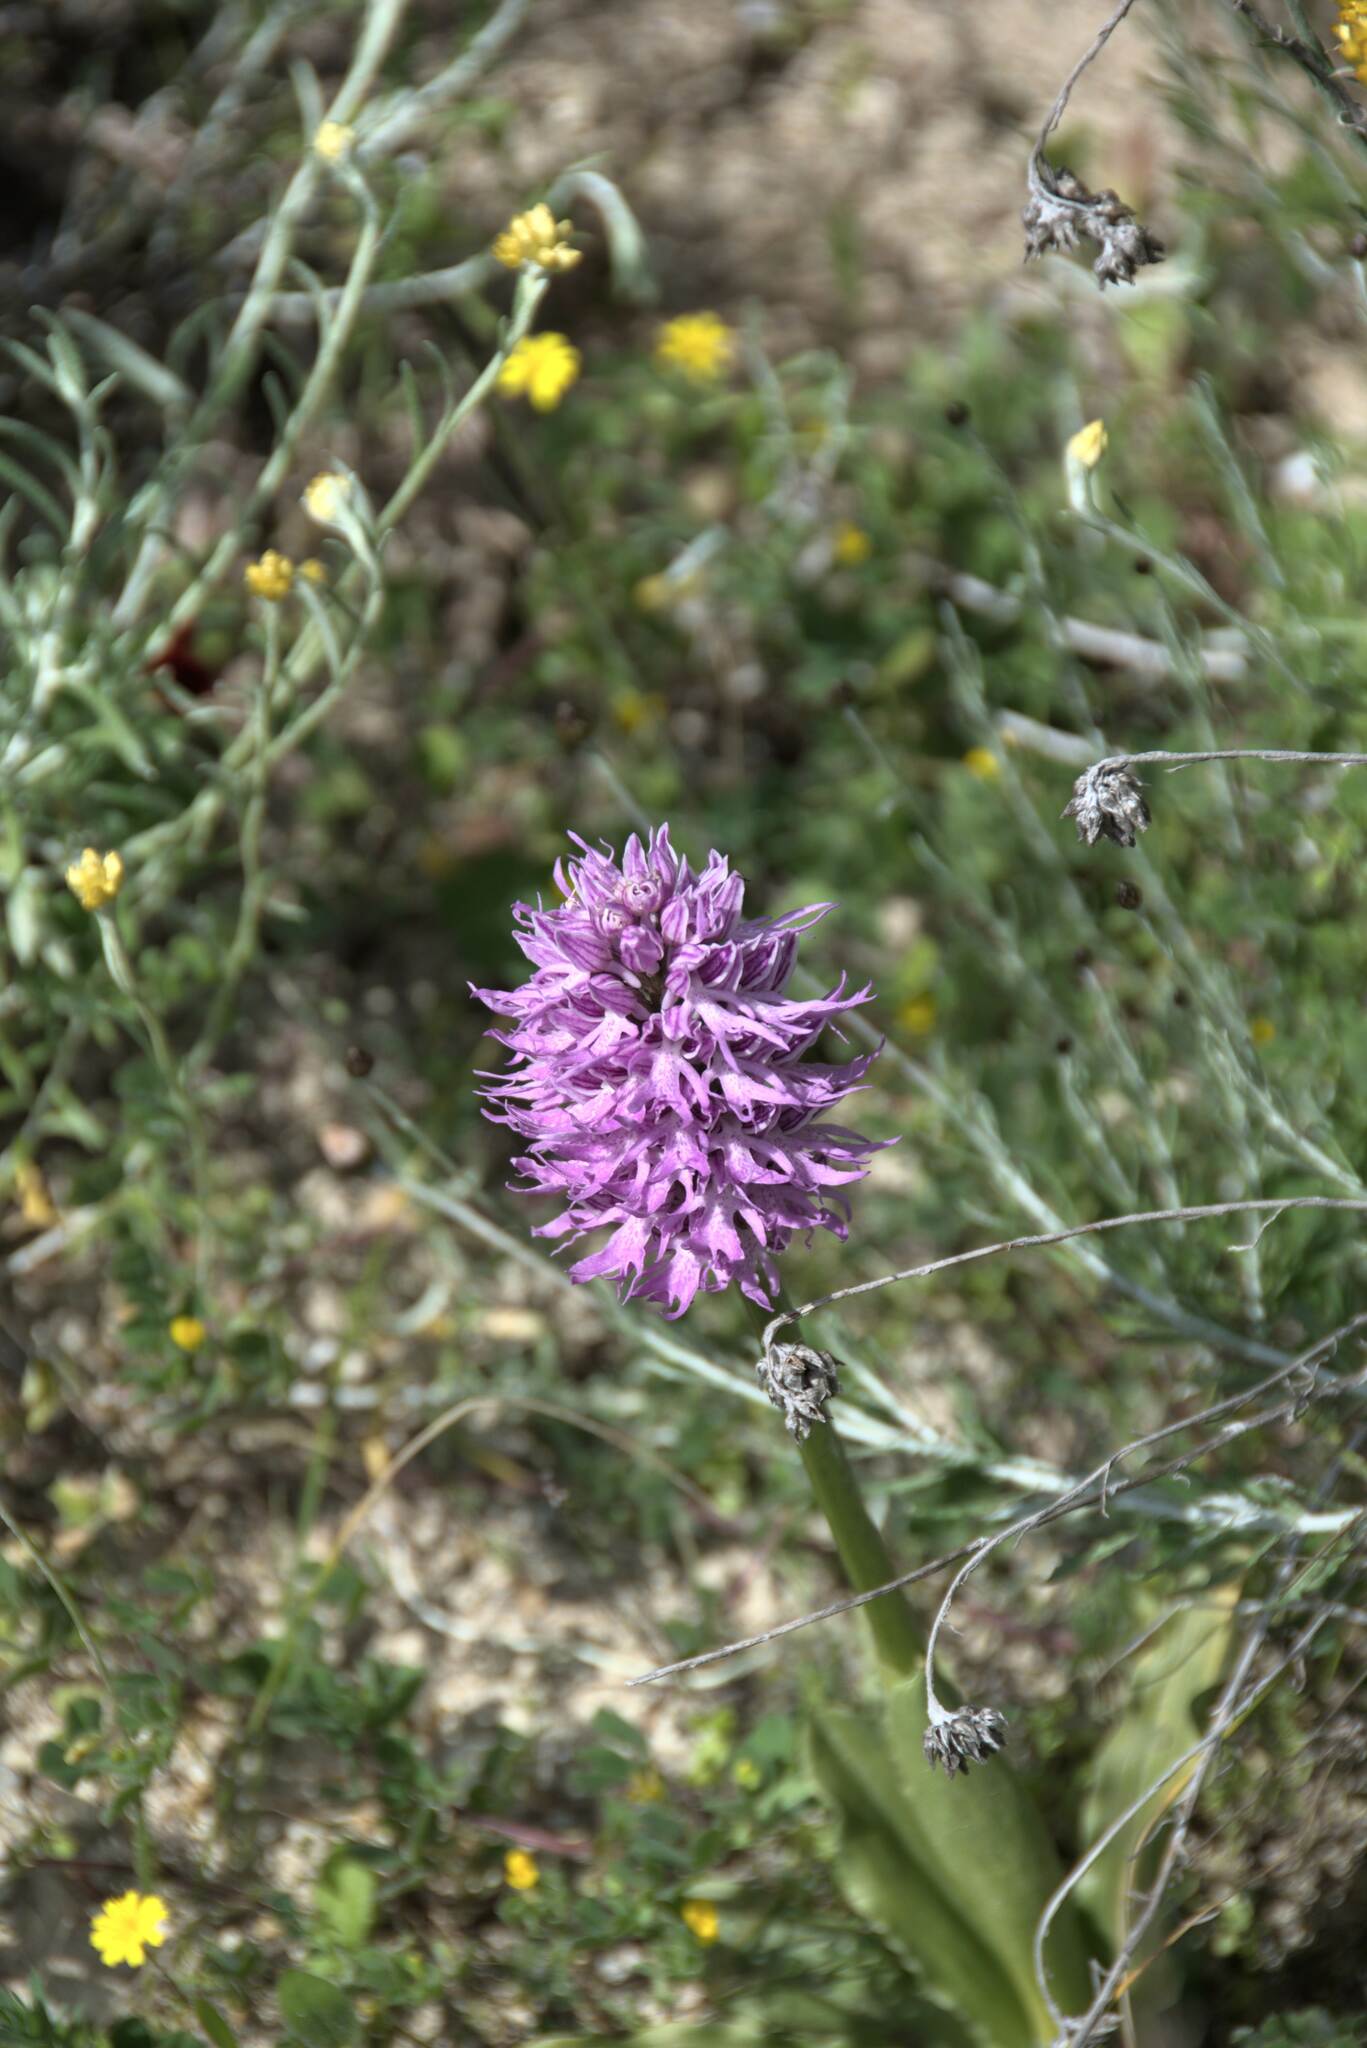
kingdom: Plantae
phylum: Tracheophyta
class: Liliopsida
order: Asparagales
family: Orchidaceae
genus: Orchis
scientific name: Orchis italica
